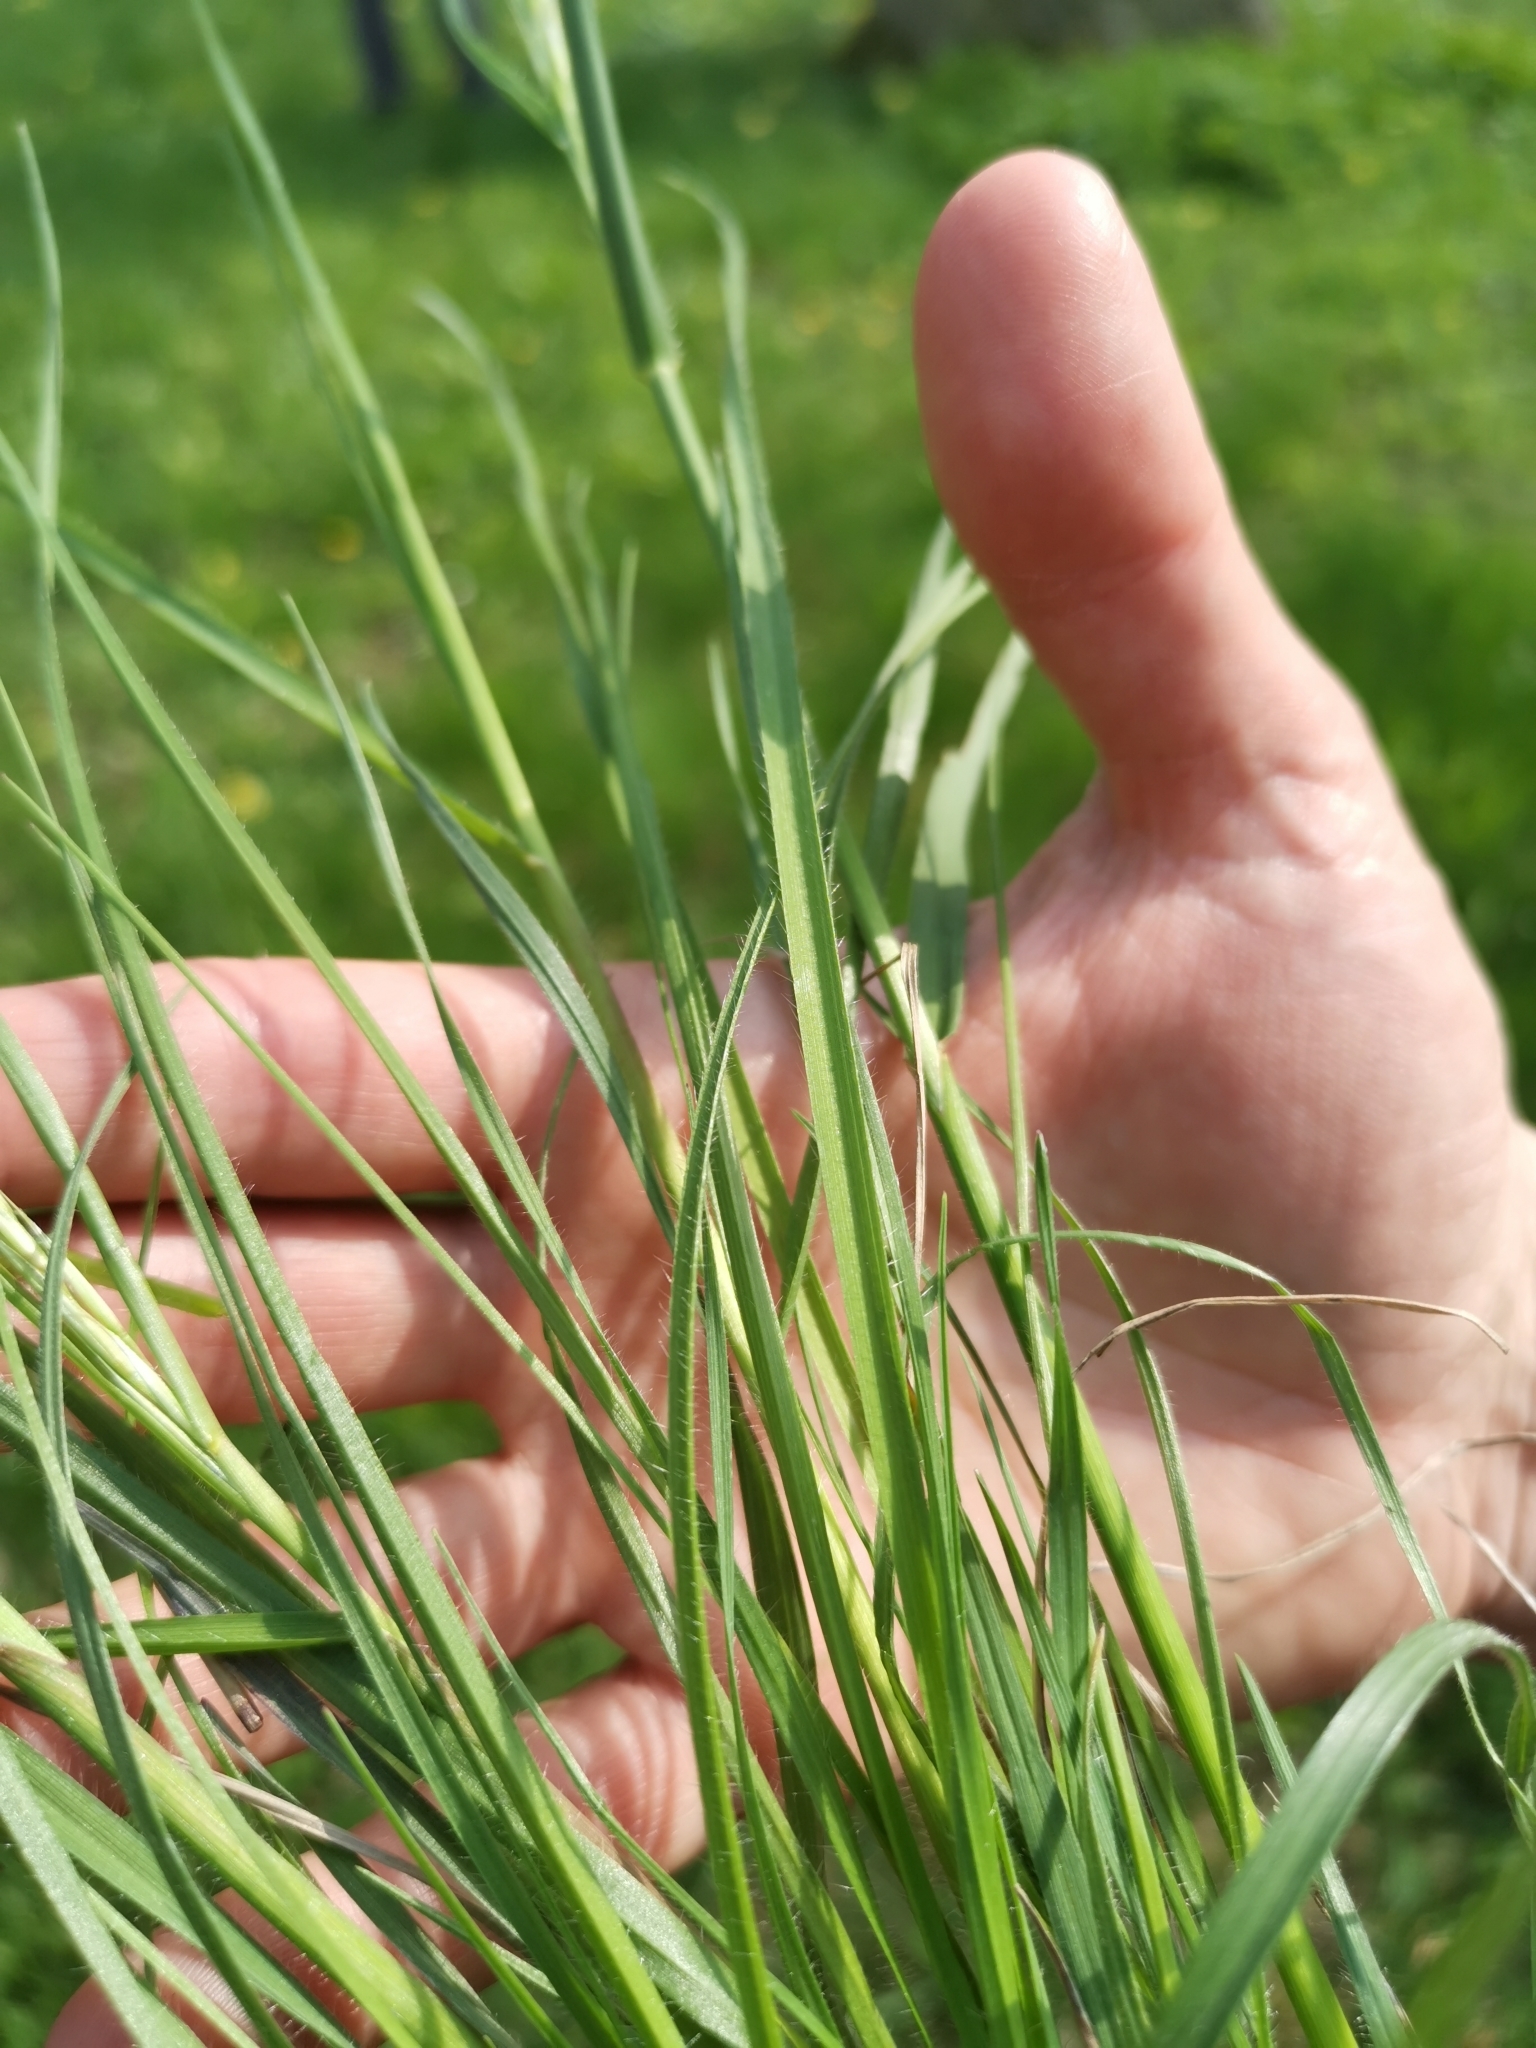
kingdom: Plantae
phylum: Tracheophyta
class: Liliopsida
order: Poales
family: Poaceae
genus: Bromus
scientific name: Bromus erectus
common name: Erect brome
